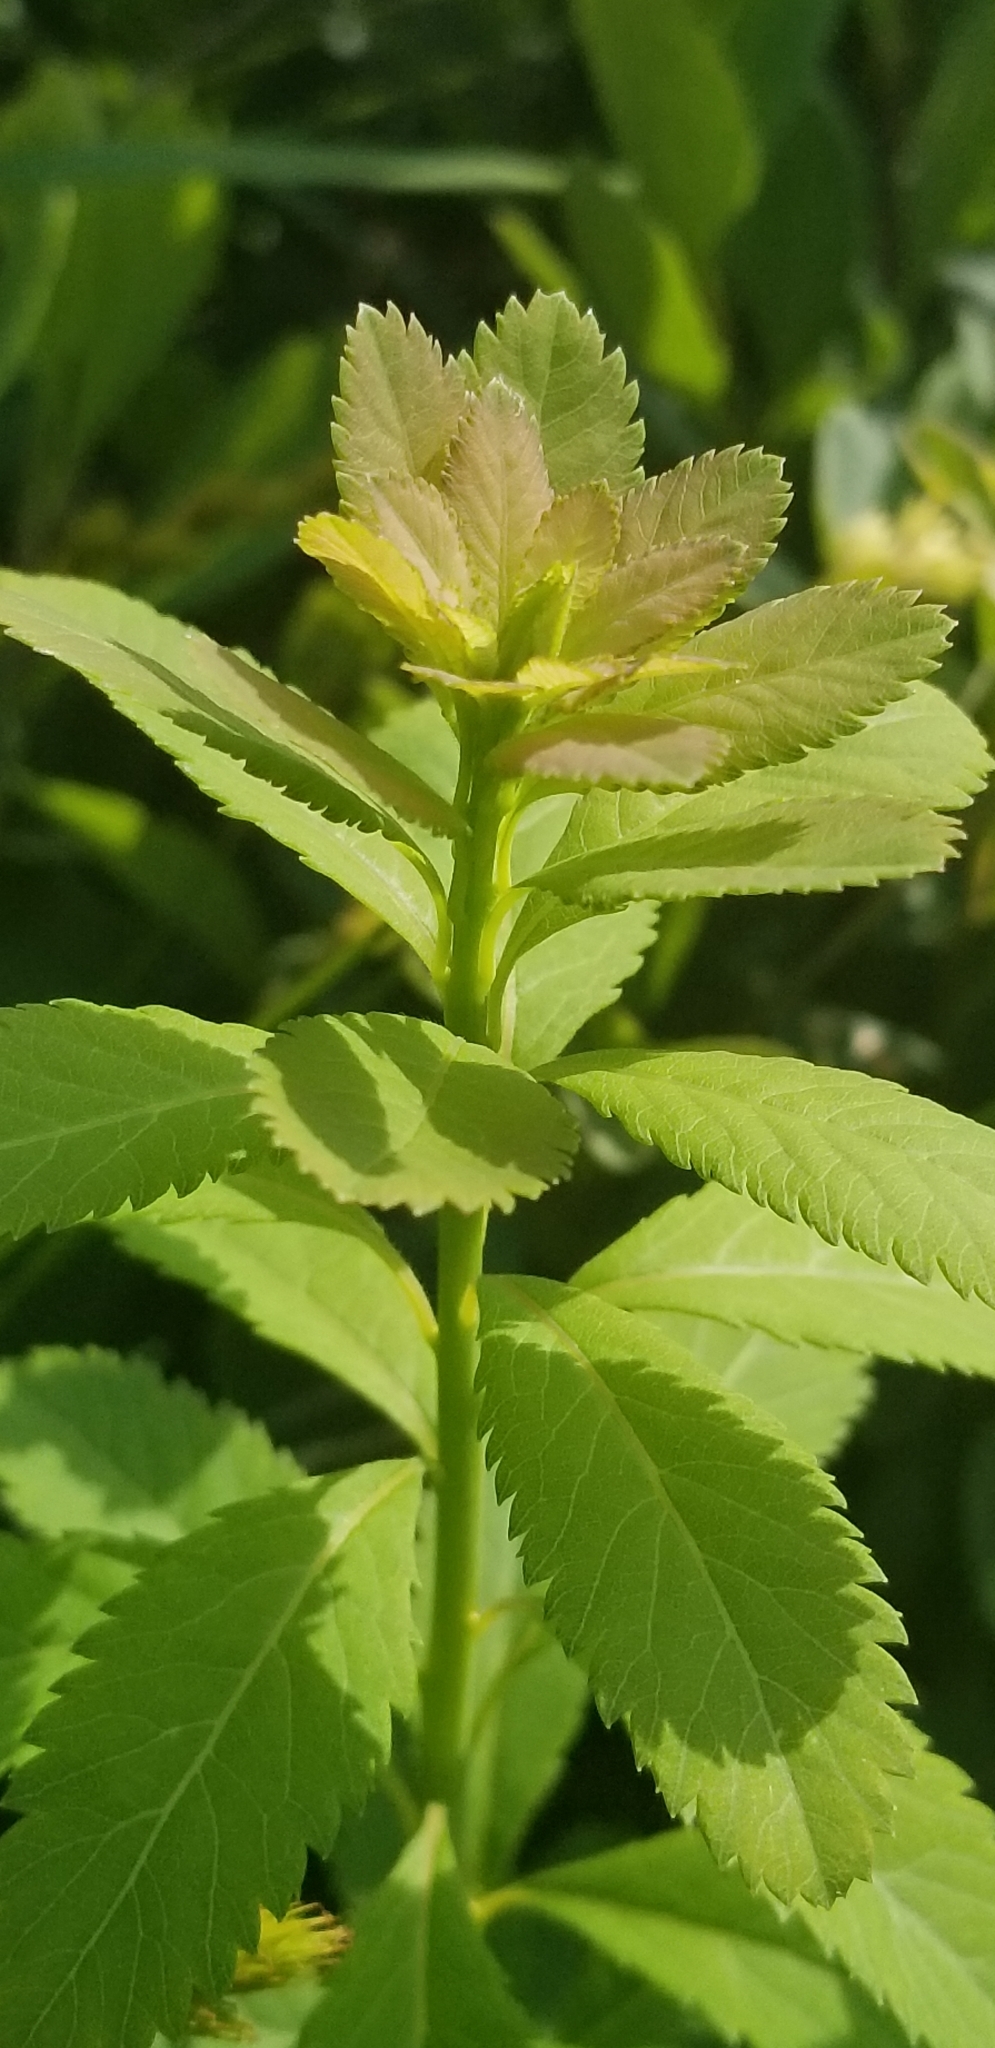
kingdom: Plantae
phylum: Tracheophyta
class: Magnoliopsida
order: Rosales
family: Rosaceae
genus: Spiraea
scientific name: Spiraea alba
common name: Pale bridewort
